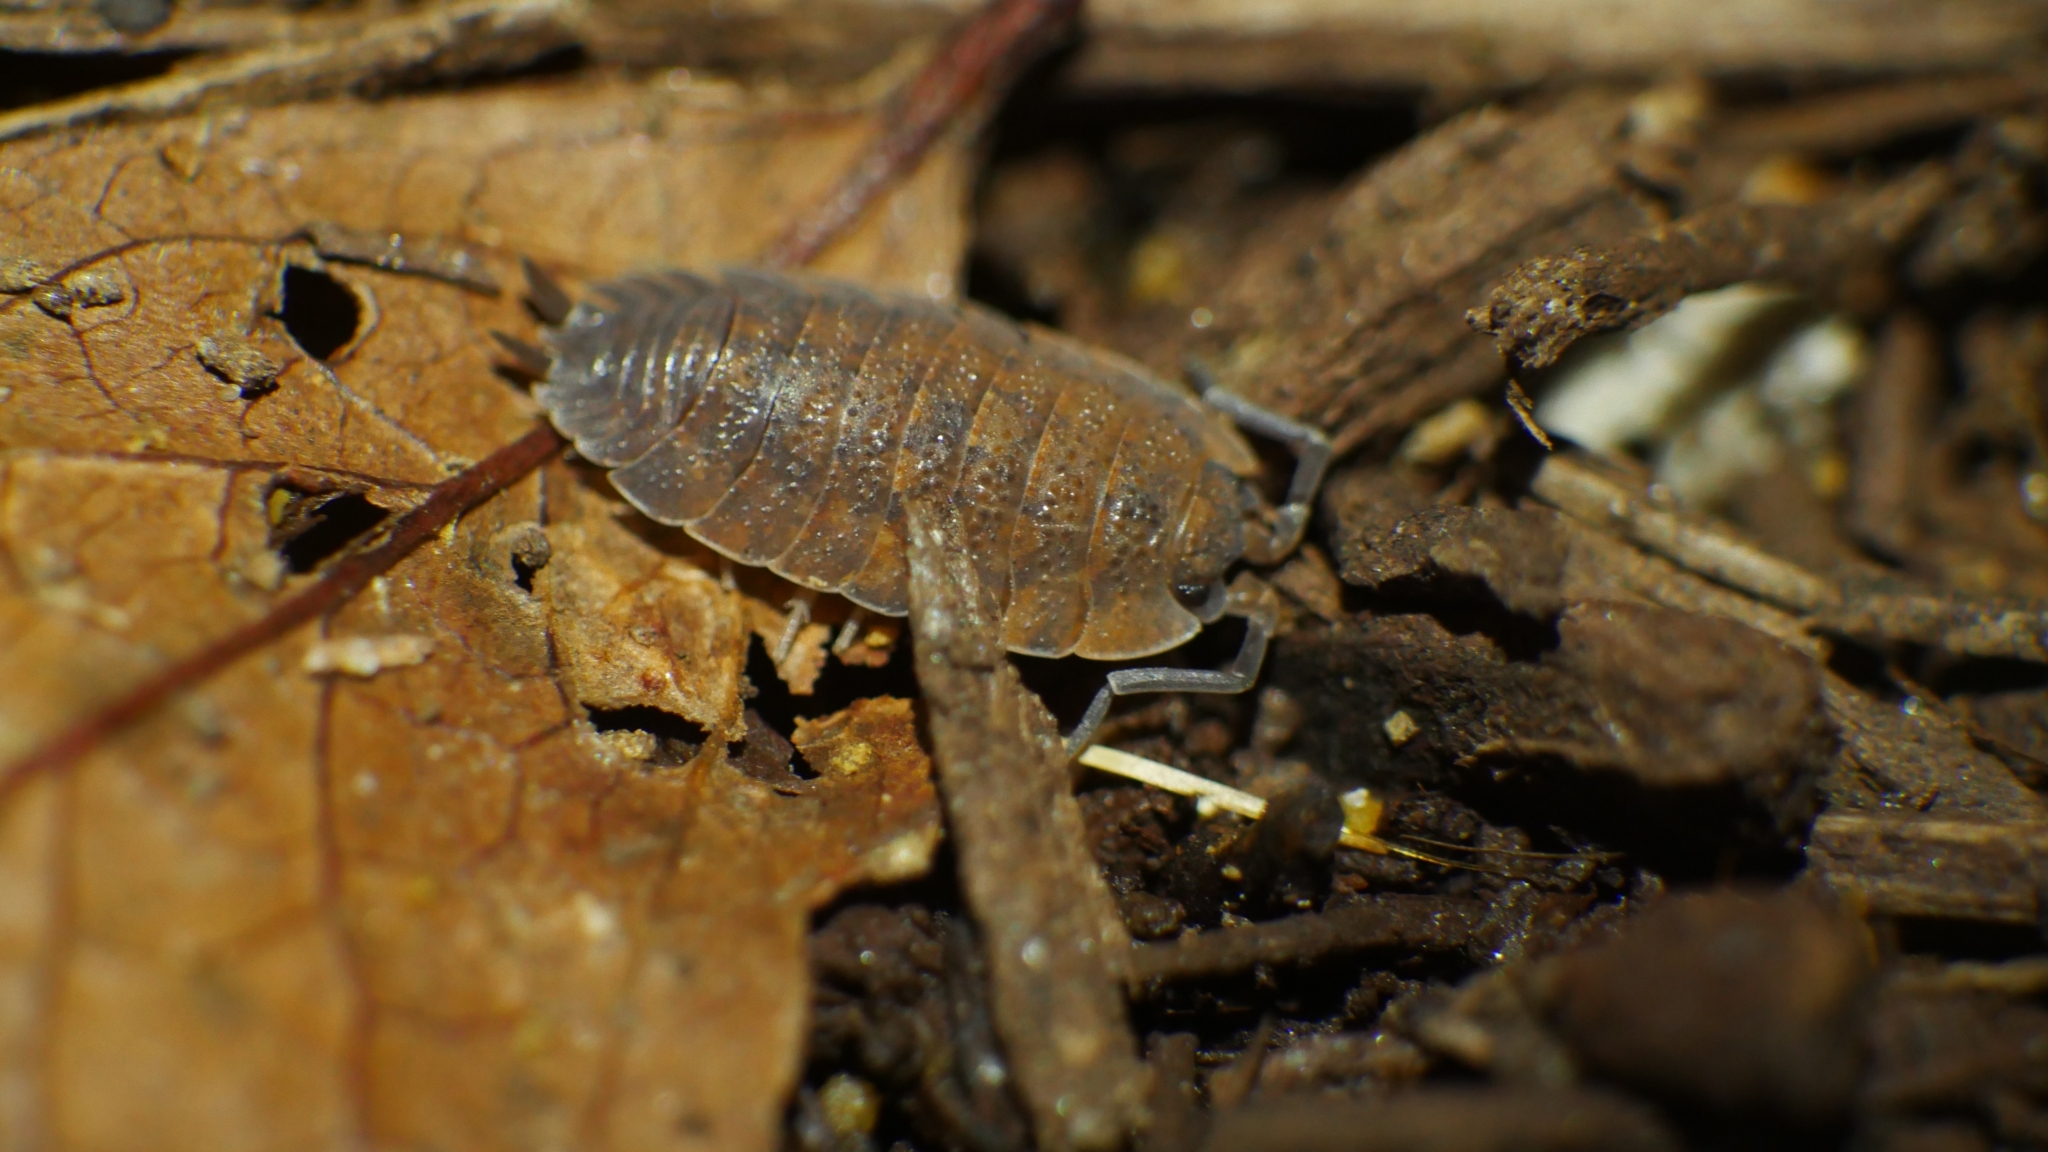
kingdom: Animalia
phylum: Arthropoda
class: Malacostraca
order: Isopoda
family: Porcellionidae
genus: Porcellio
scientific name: Porcellio scaber
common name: Common rough woodlouse
